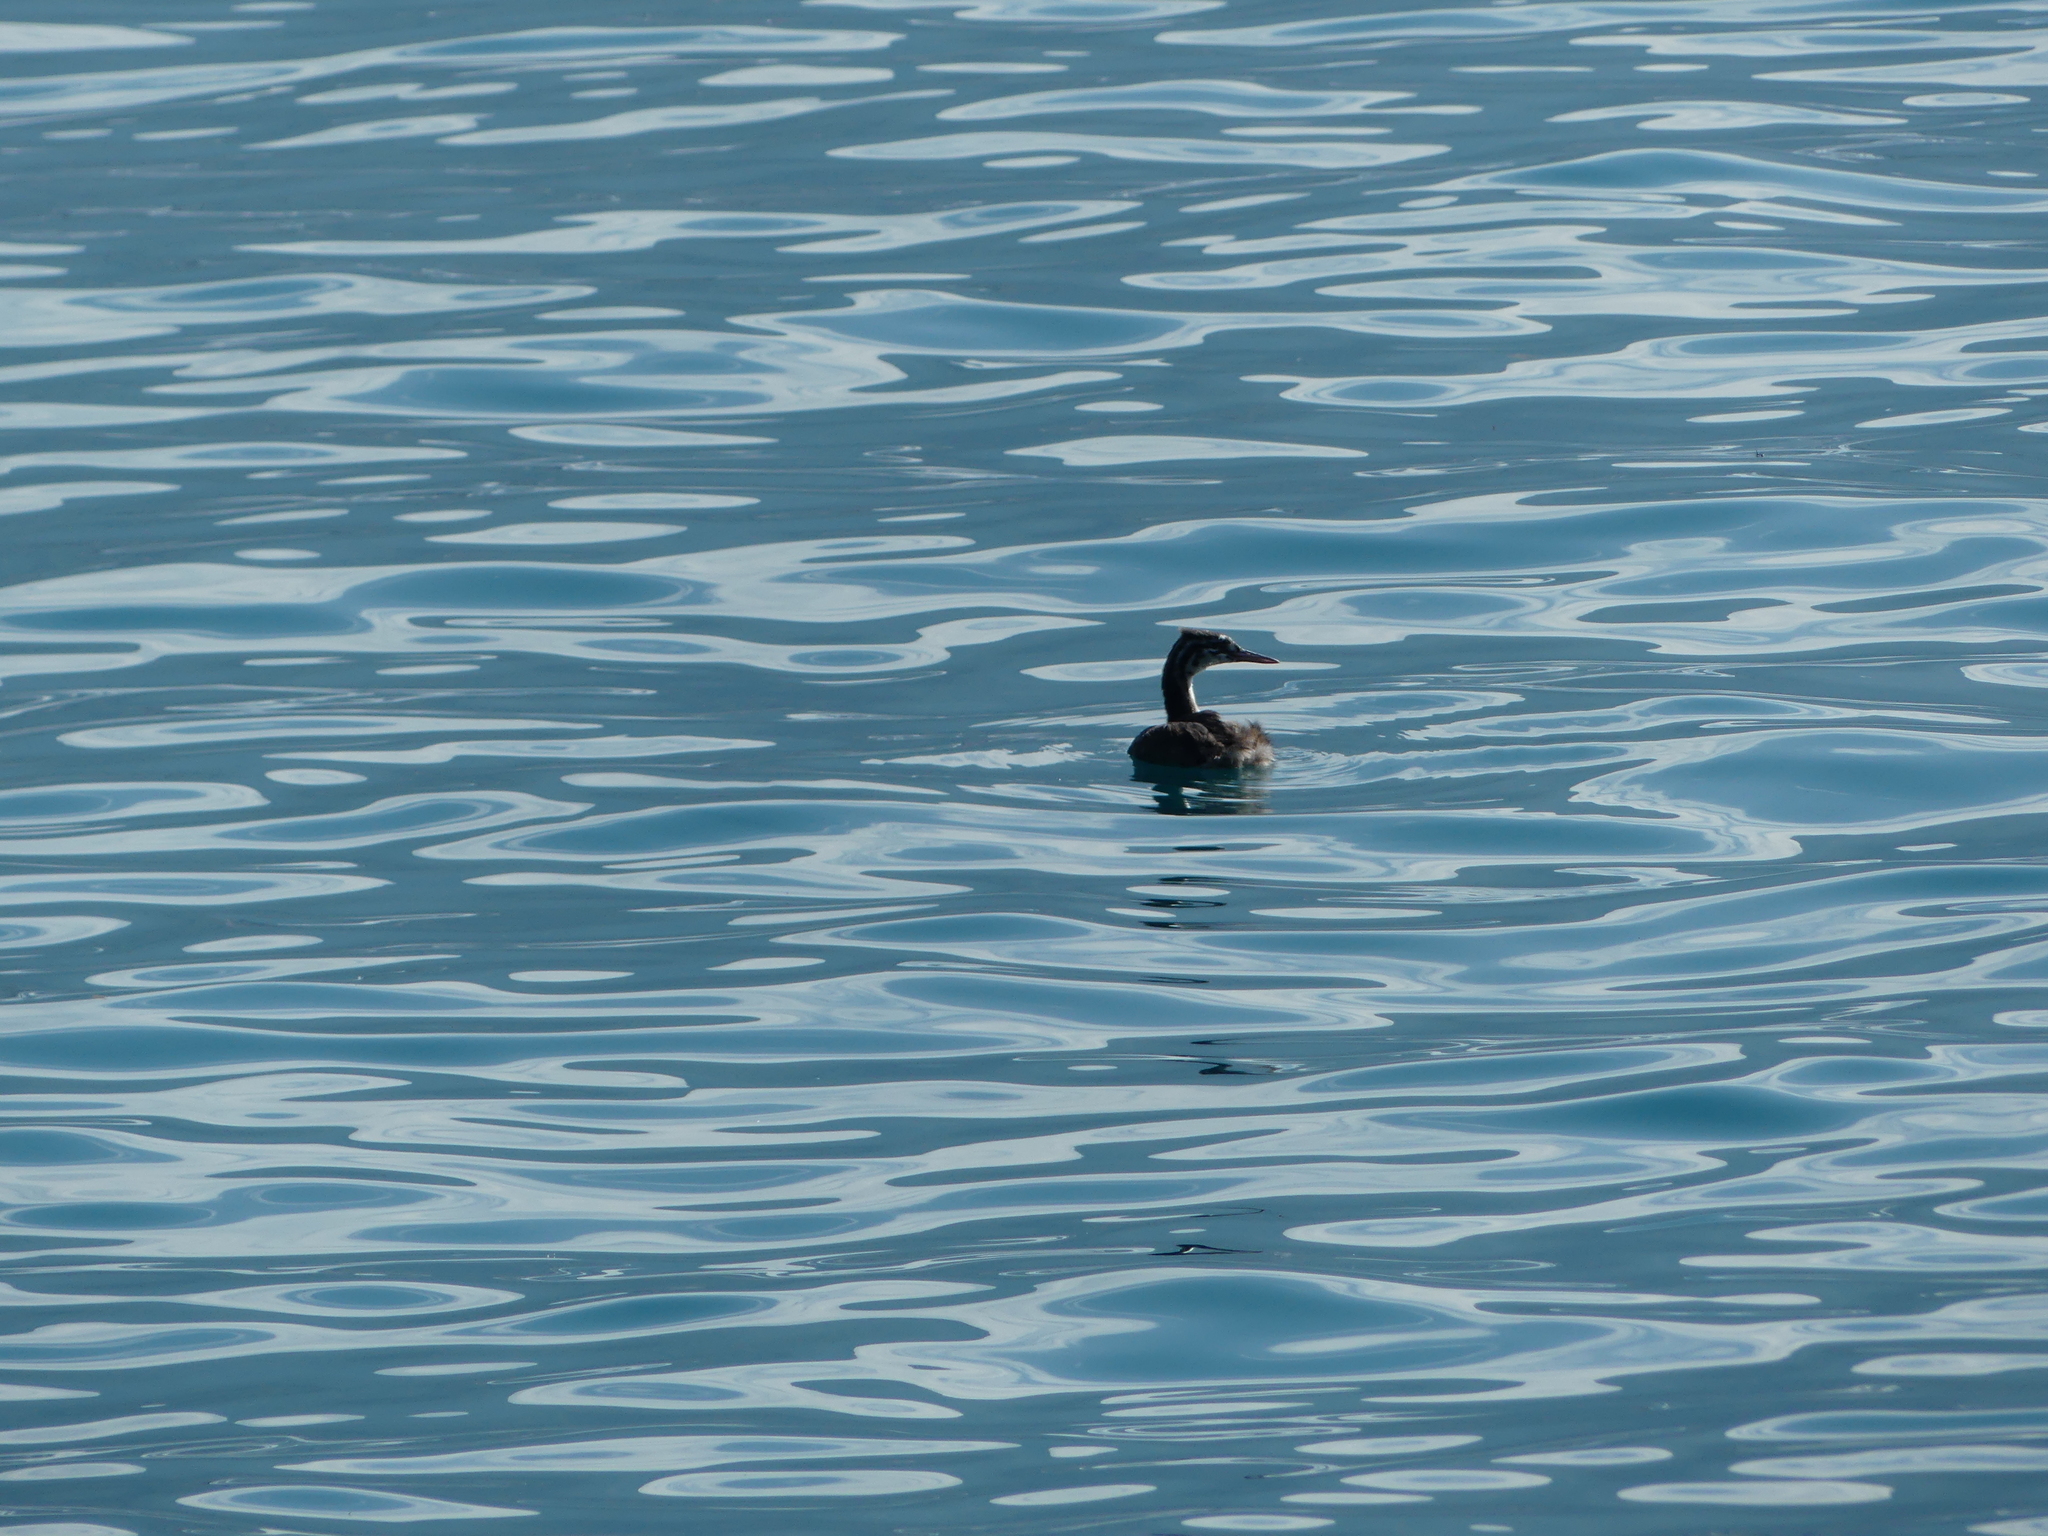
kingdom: Animalia
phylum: Chordata
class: Aves
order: Podicipediformes
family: Podicipedidae
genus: Podiceps
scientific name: Podiceps cristatus
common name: Great crested grebe
